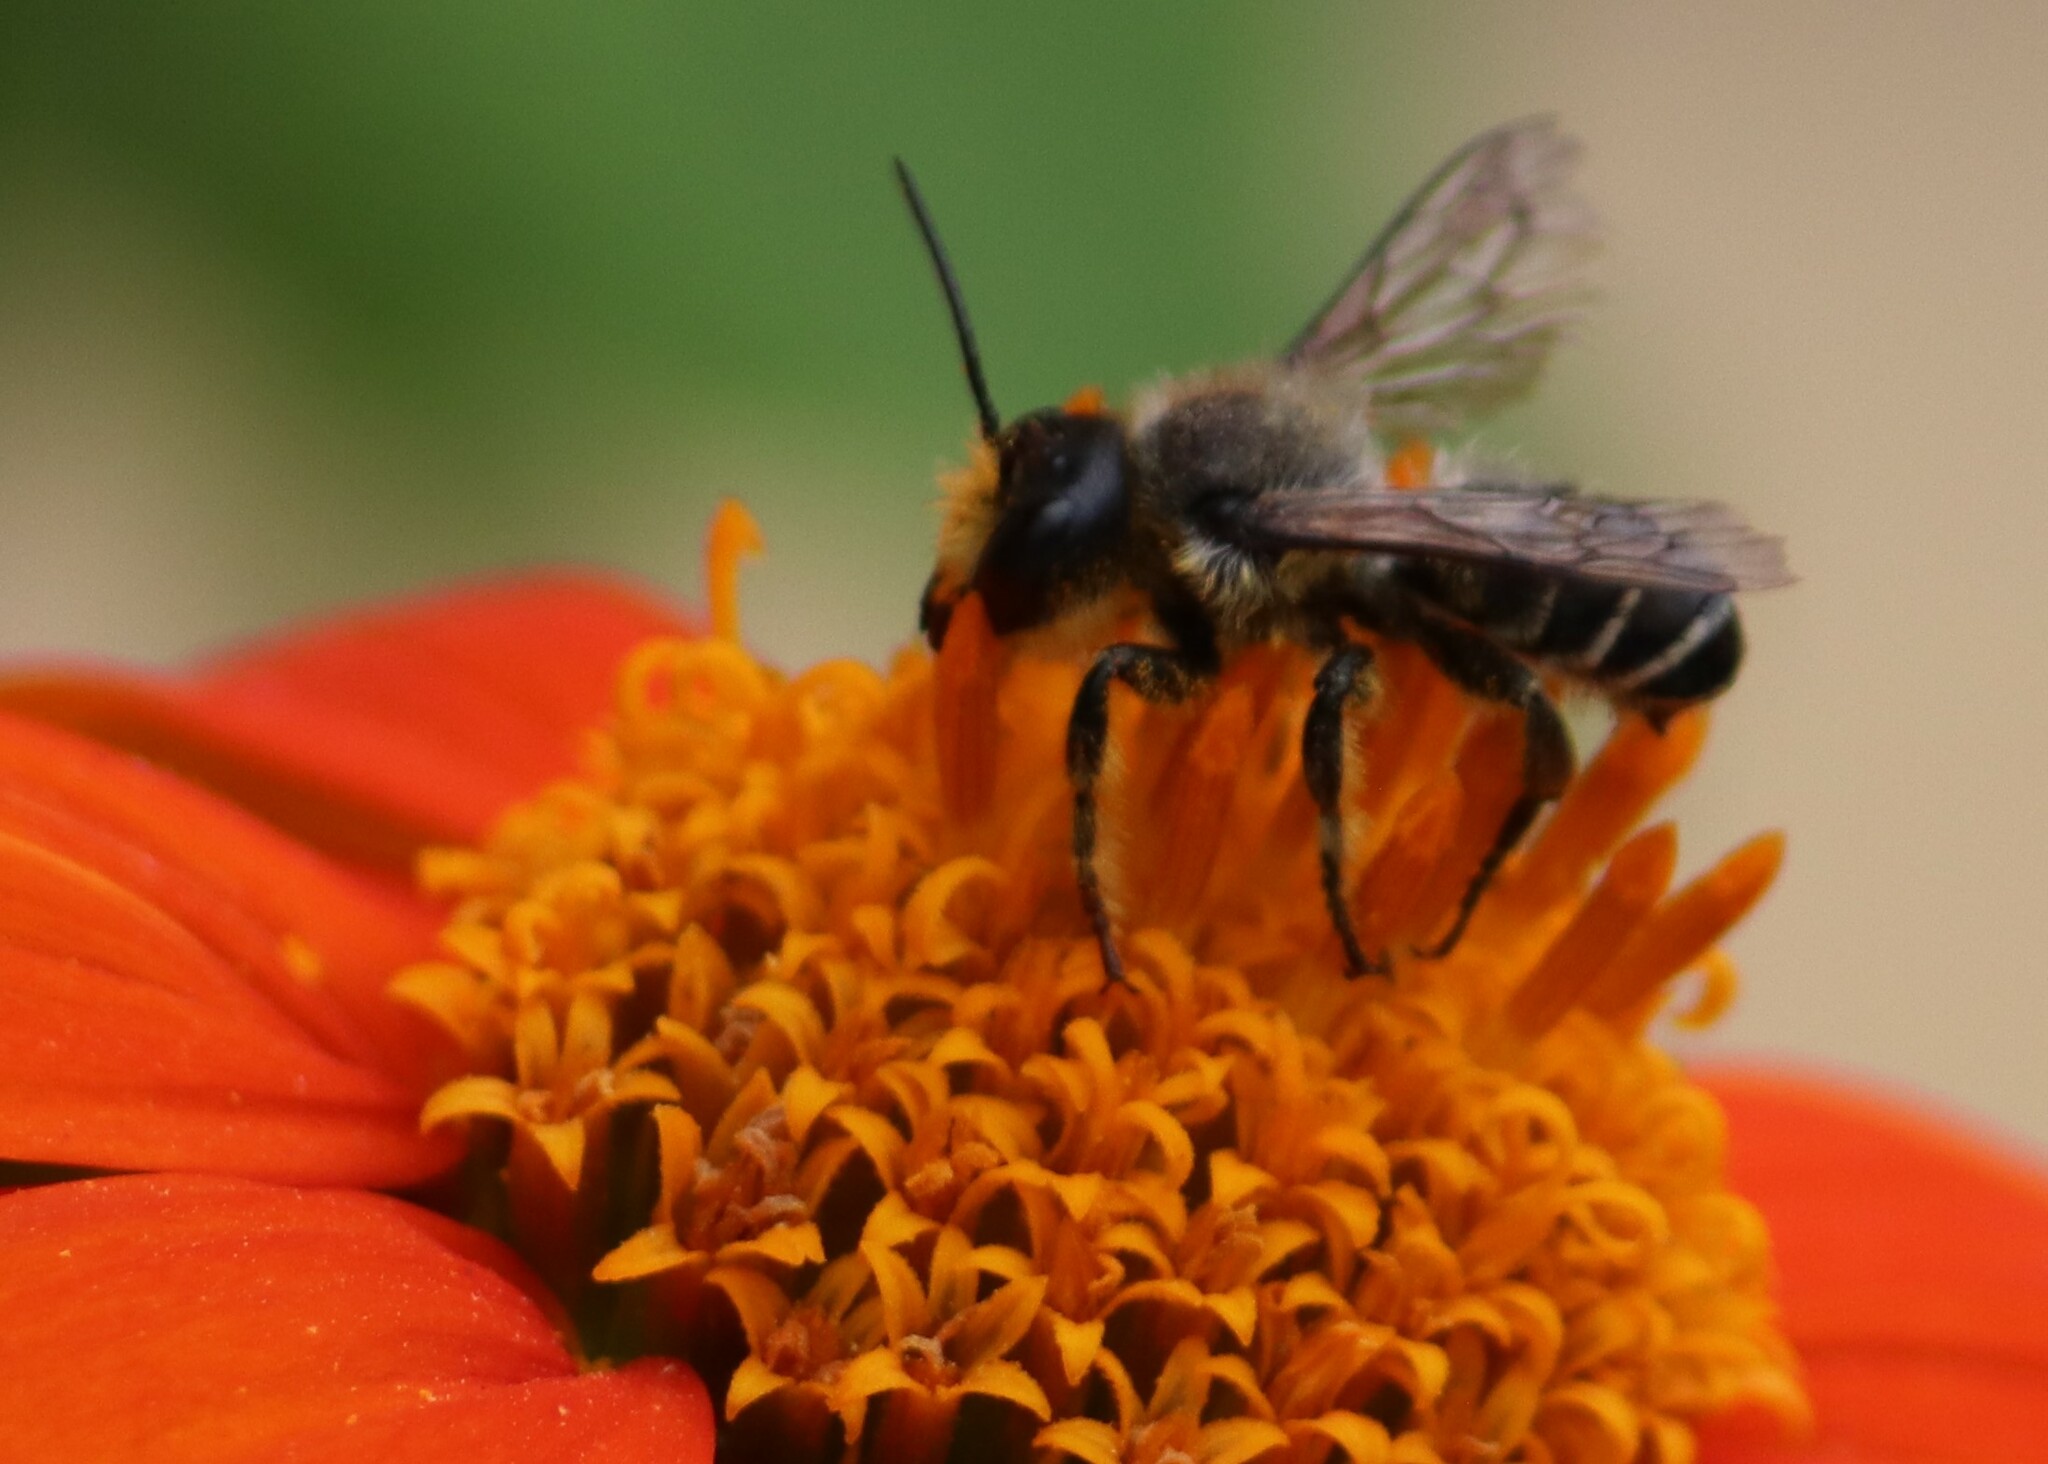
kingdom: Animalia
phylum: Arthropoda
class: Insecta
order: Hymenoptera
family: Megachilidae
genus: Megachile
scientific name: Megachile inermis
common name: Unarmed leafcutter bee
